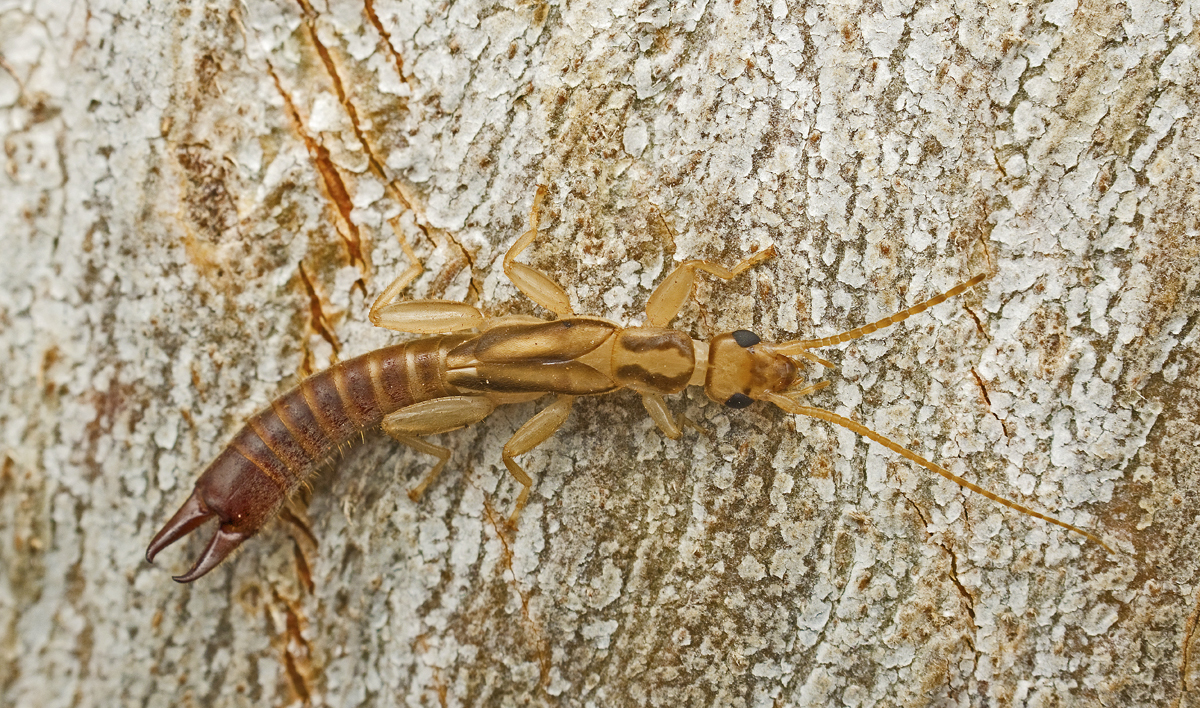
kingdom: Animalia
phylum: Arthropoda
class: Insecta
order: Dermaptera
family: Pygidicranidae
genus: Dacnodes
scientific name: Dacnodes hackeri
